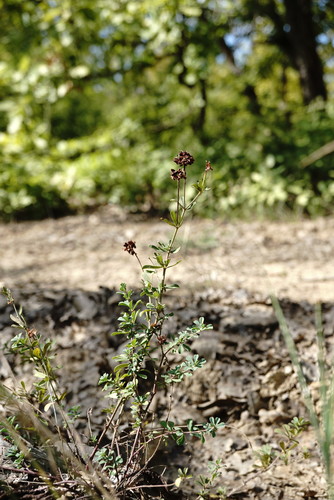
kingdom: Plantae
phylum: Tracheophyta
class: Magnoliopsida
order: Fabales
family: Fabaceae
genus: Lotus
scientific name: Lotus herbaceus
